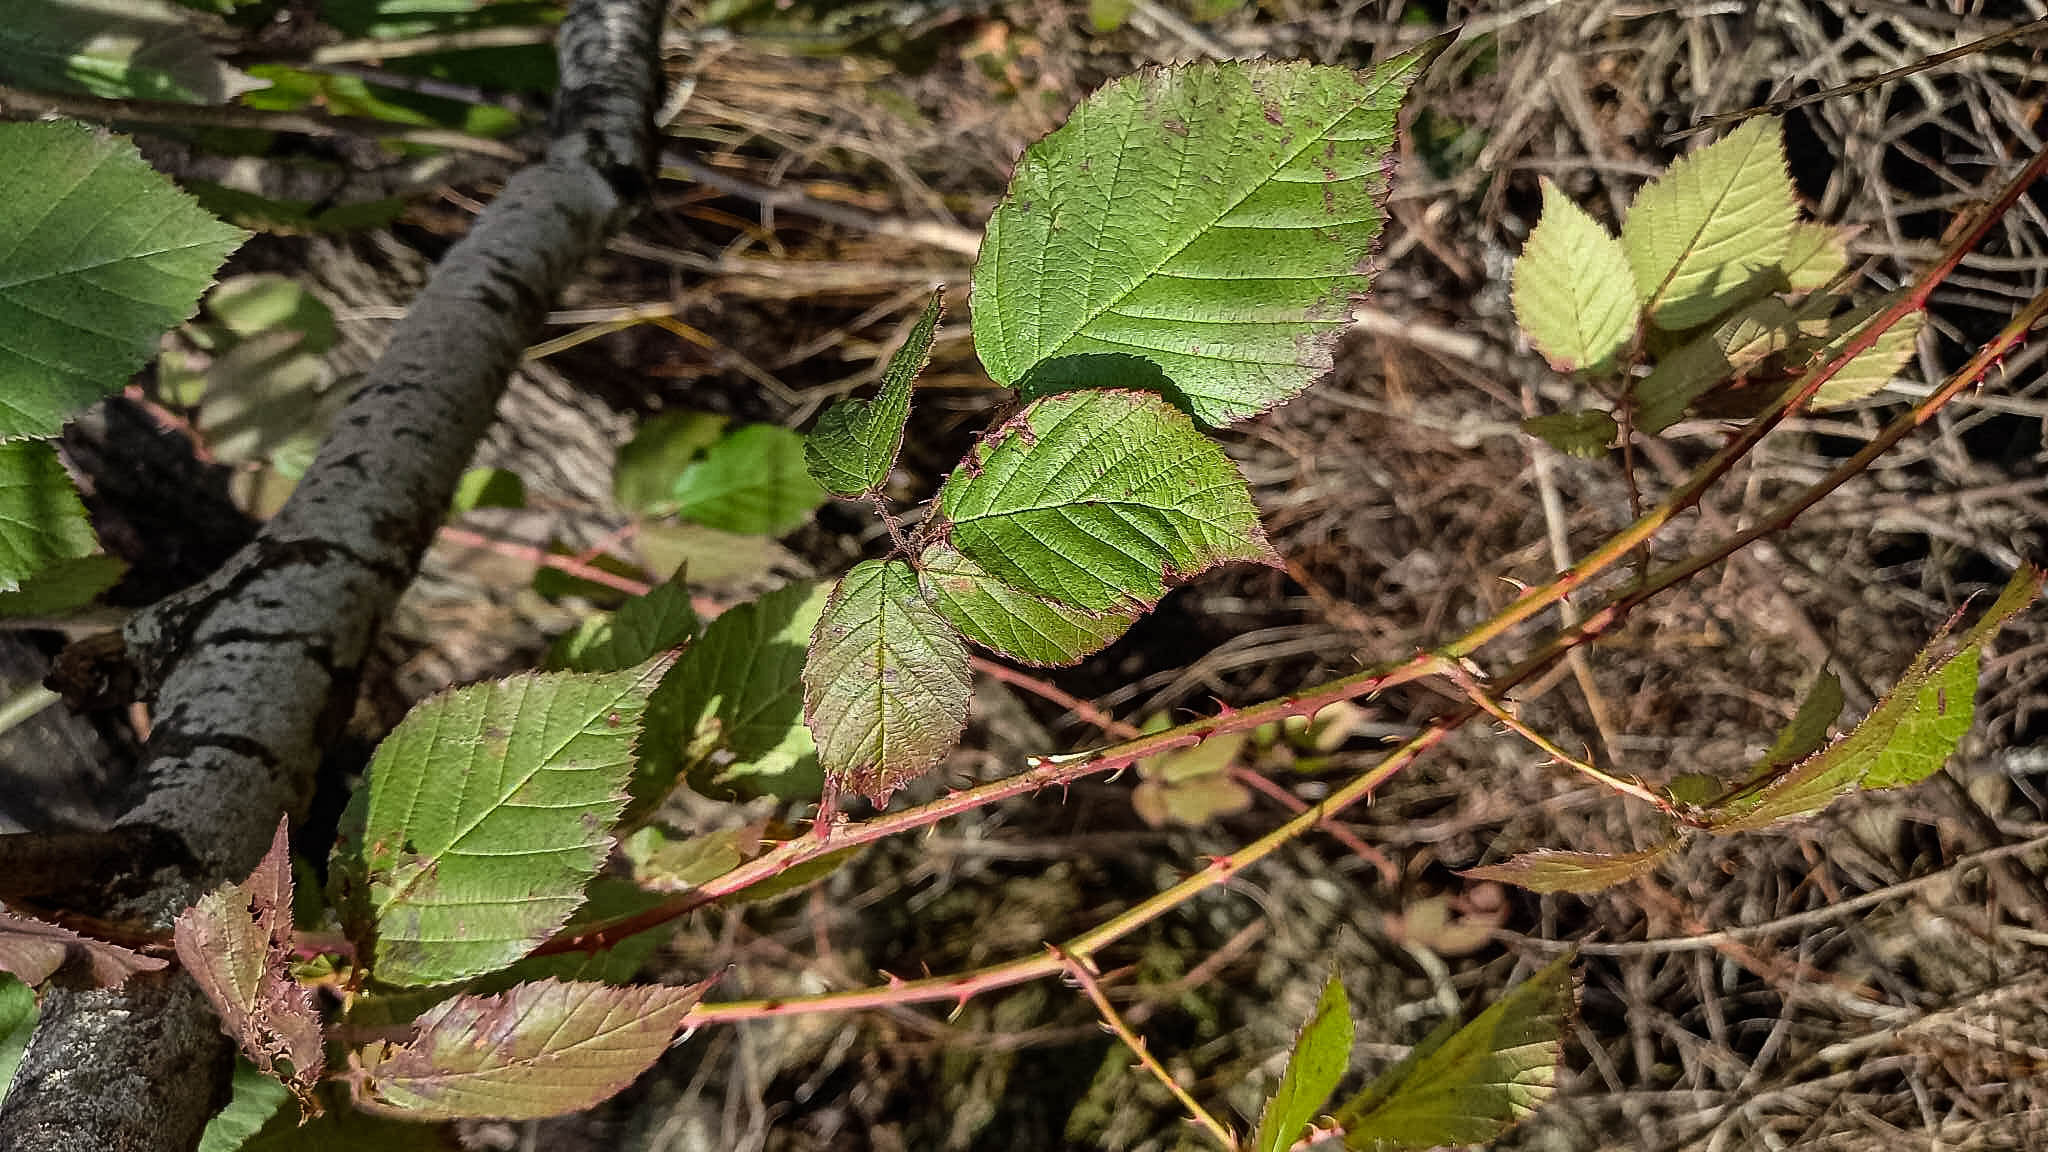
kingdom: Plantae
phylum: Tracheophyta
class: Magnoliopsida
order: Rosales
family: Rosaceae
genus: Rubus
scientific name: Rubus fruticosus
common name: Blackberry, bramble
